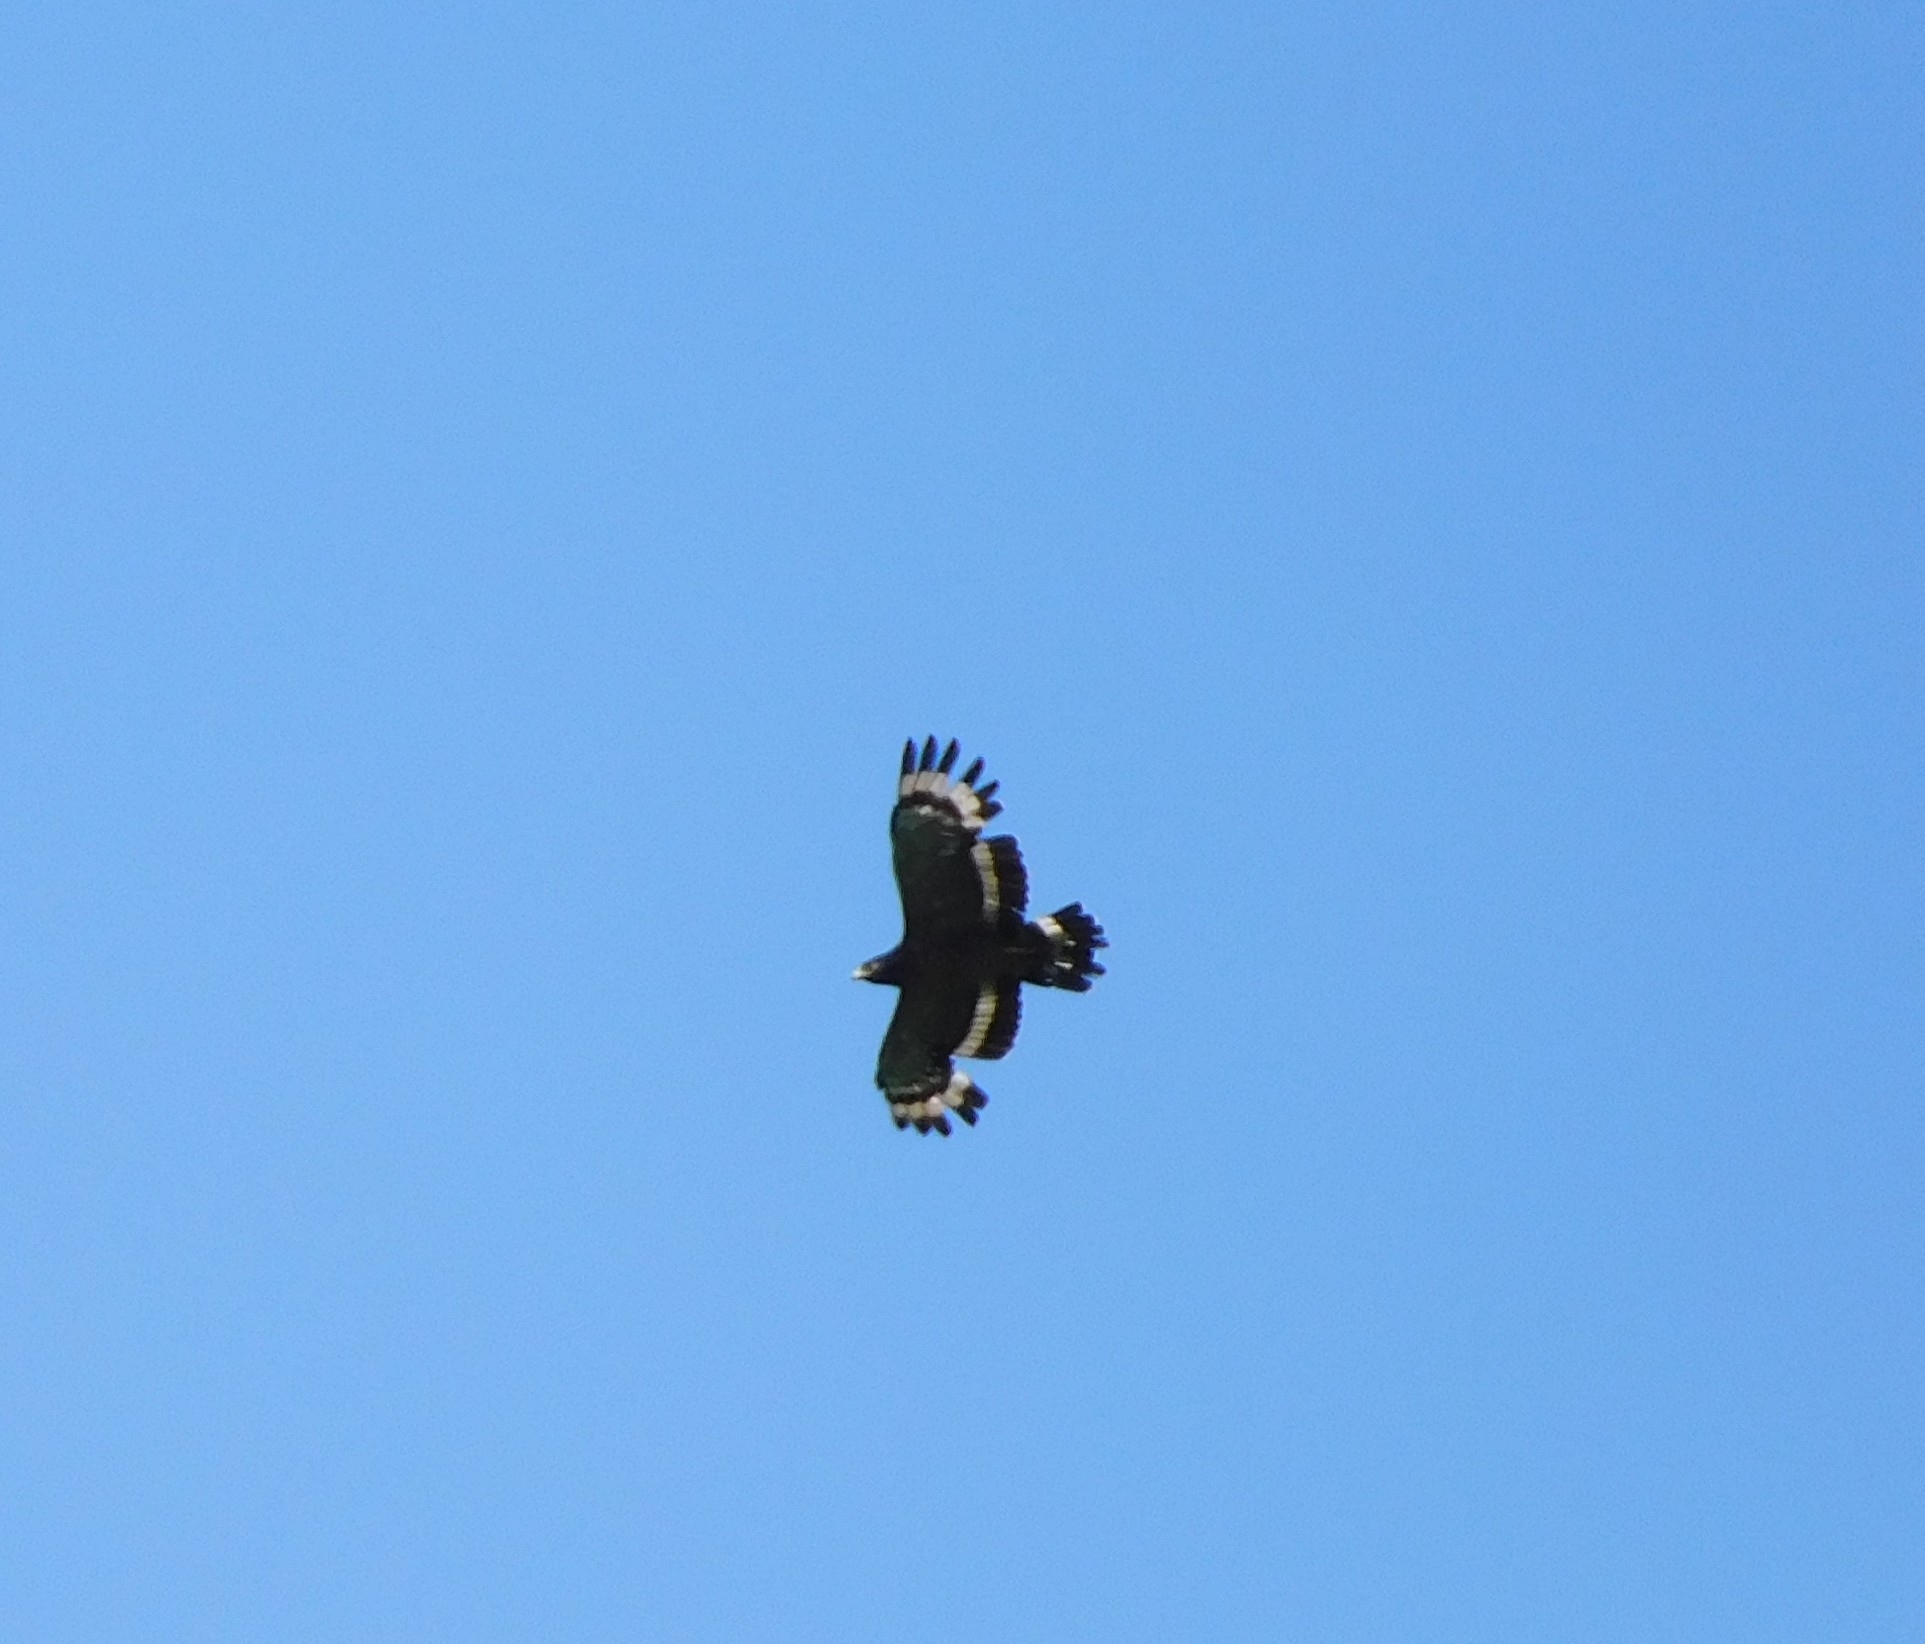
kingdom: Animalia
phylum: Chordata
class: Aves
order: Accipitriformes
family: Accipitridae
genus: Spilornis
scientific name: Spilornis cheela
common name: Crested serpent eagle
